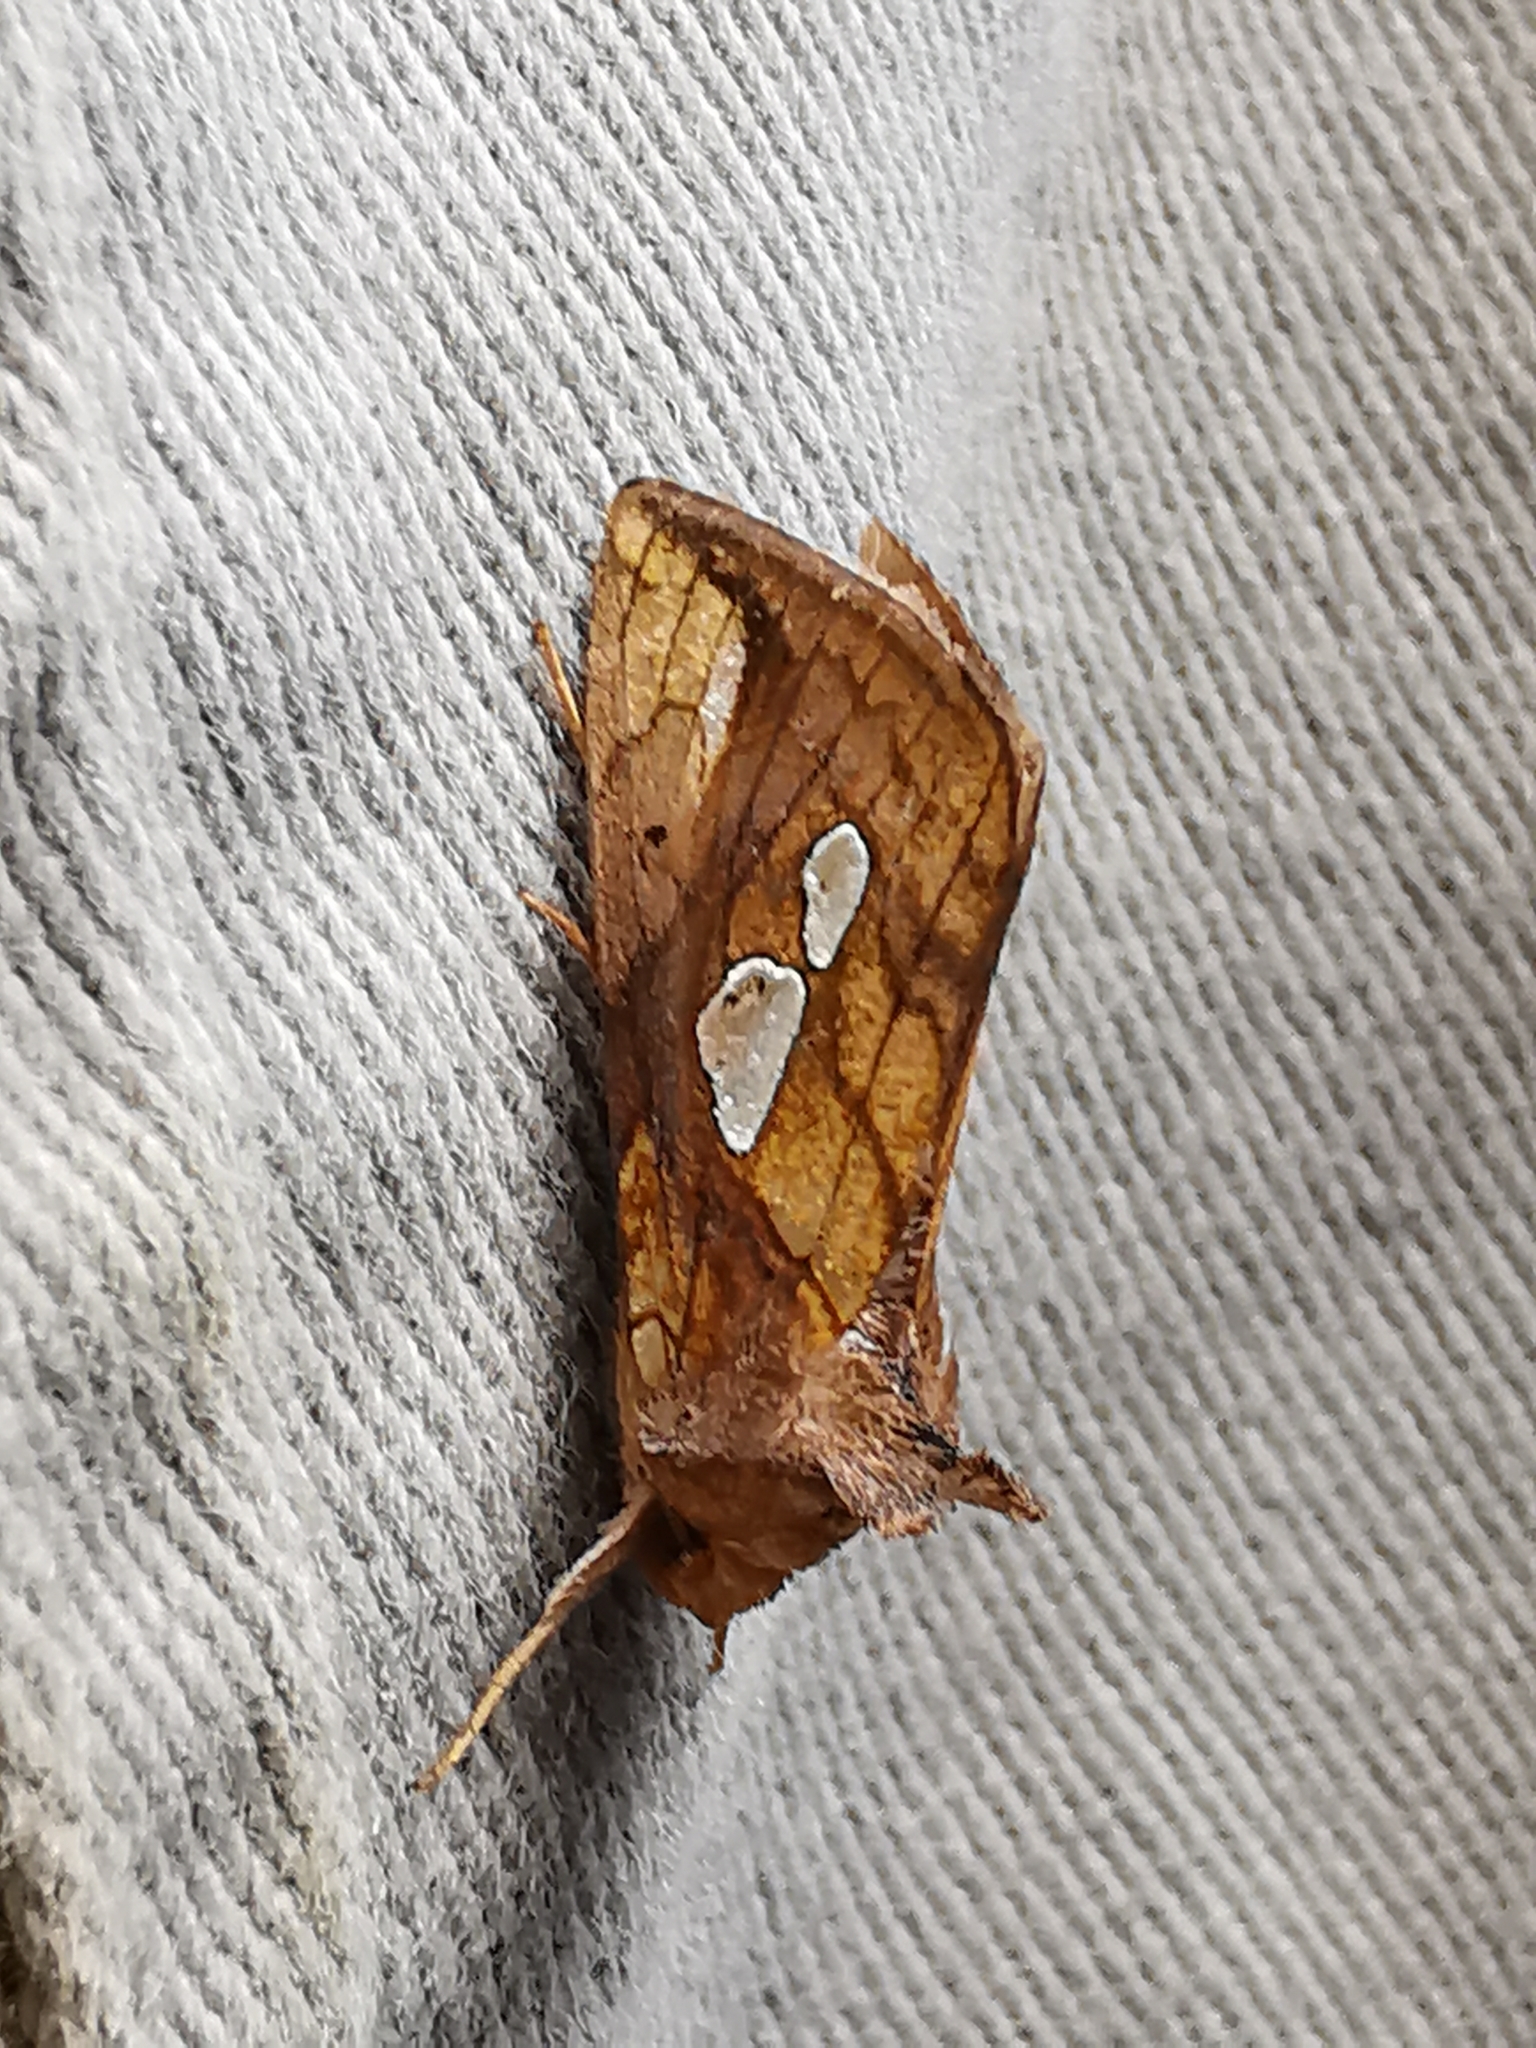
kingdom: Animalia
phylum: Arthropoda
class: Insecta
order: Lepidoptera
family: Noctuidae
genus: Plusia
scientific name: Plusia festucae
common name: Gold spot
